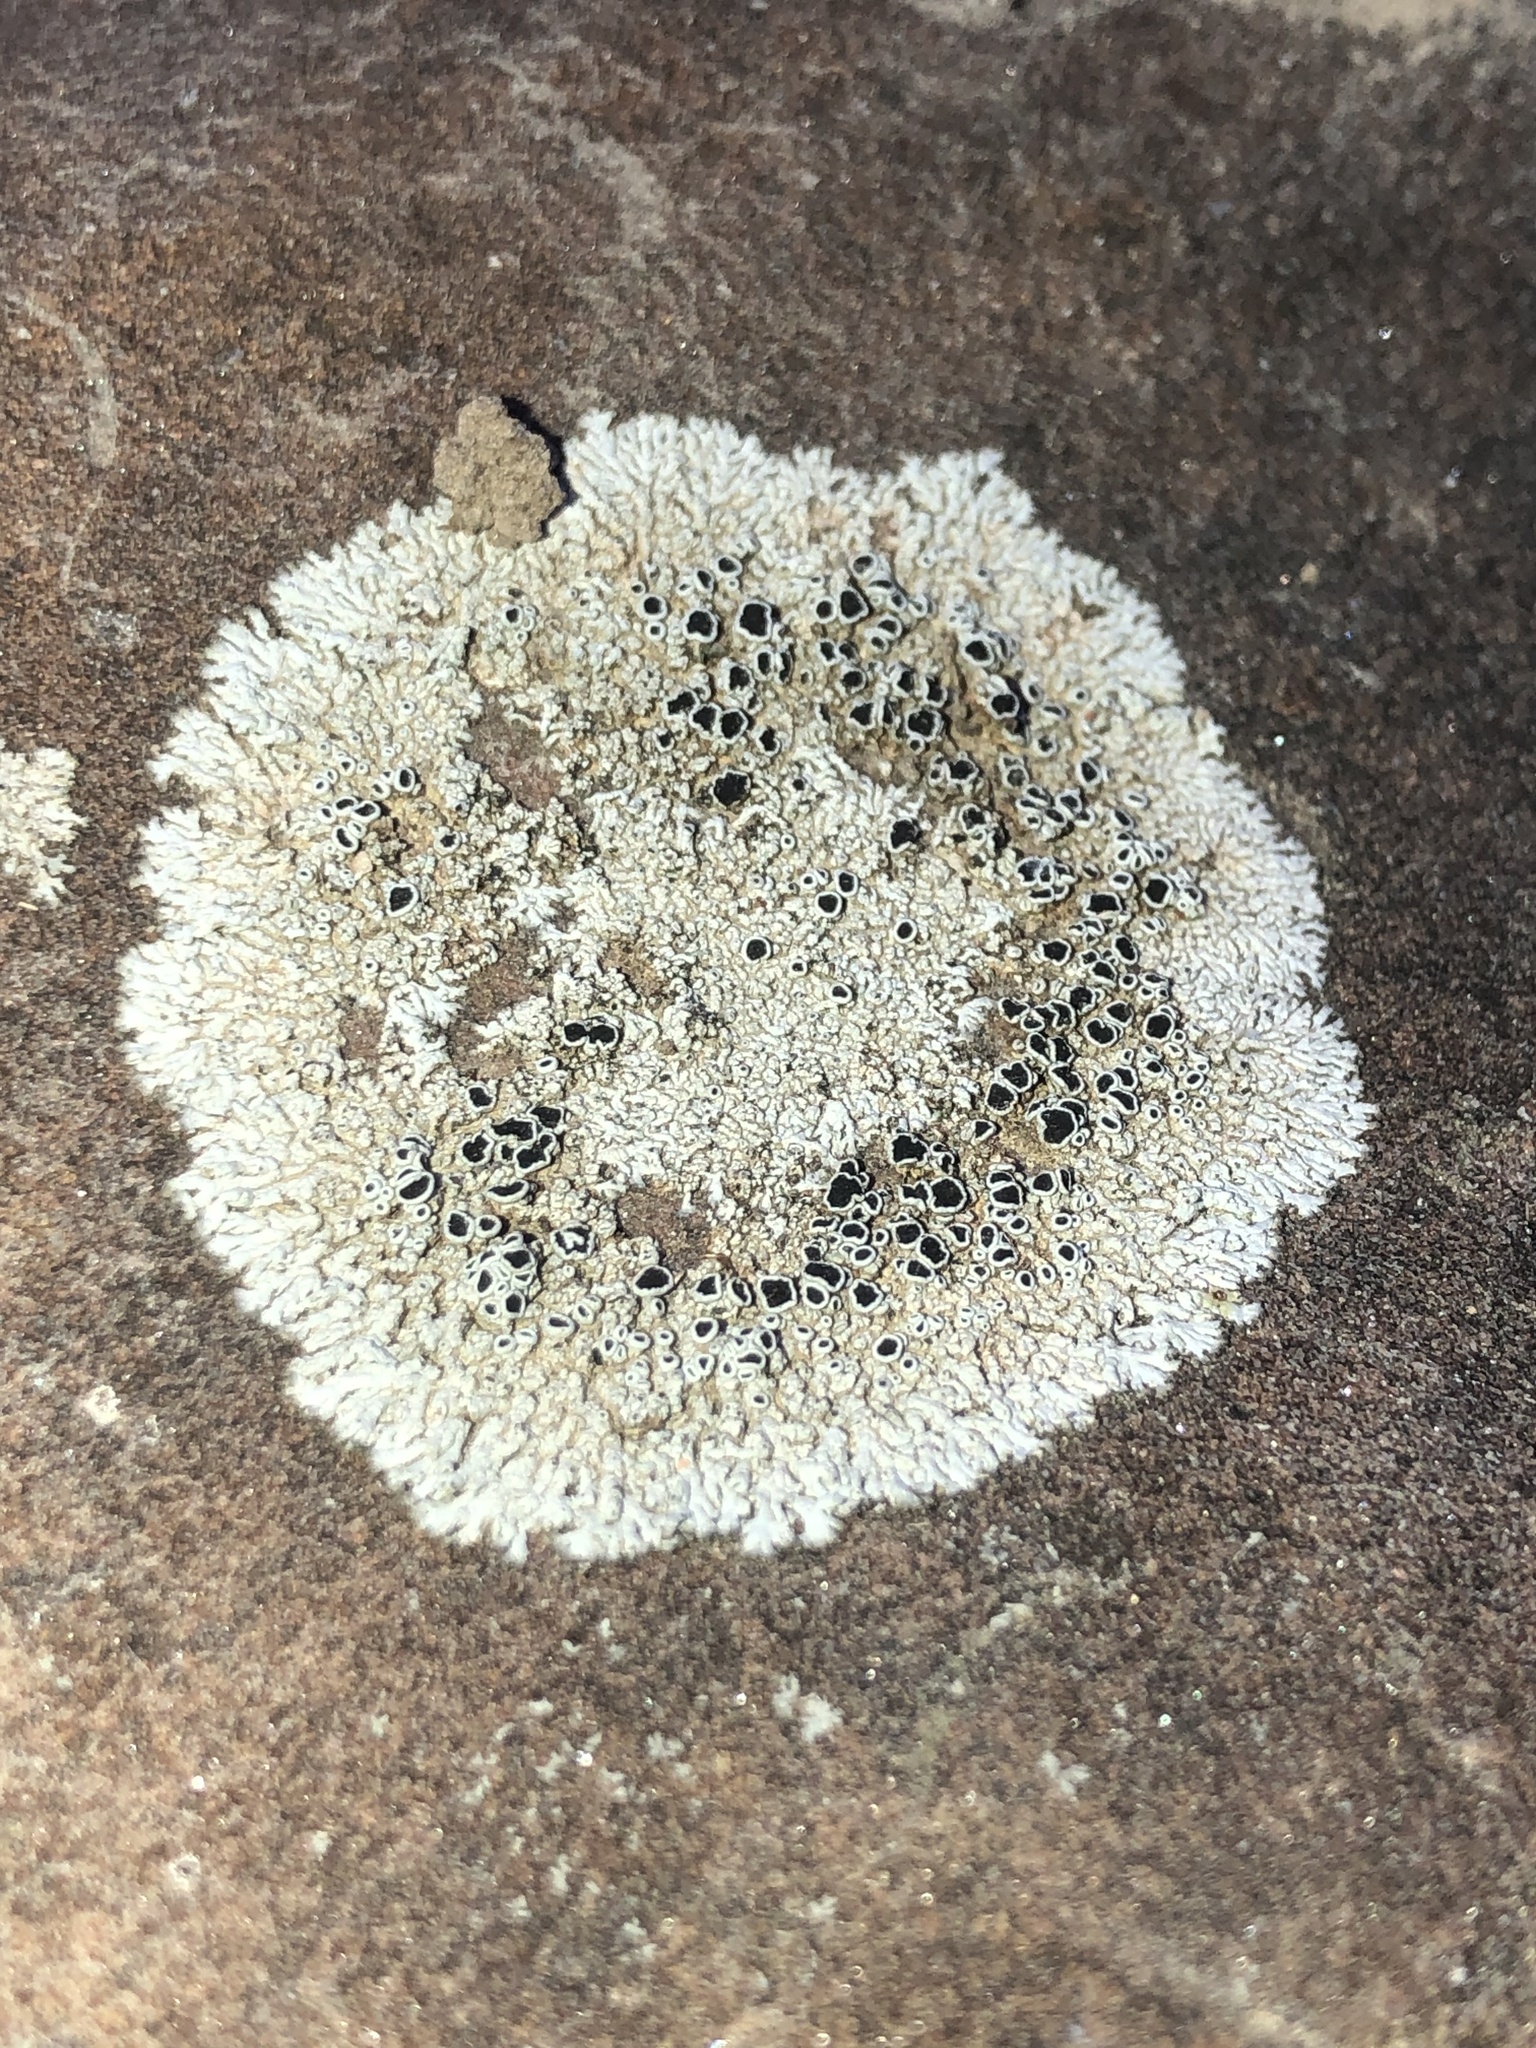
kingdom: Fungi
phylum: Ascomycota
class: Lecanoromycetes
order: Caliciales
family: Physciaceae
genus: Physcia
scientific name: Physcia phaea
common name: Black-eyed rosette lichen
